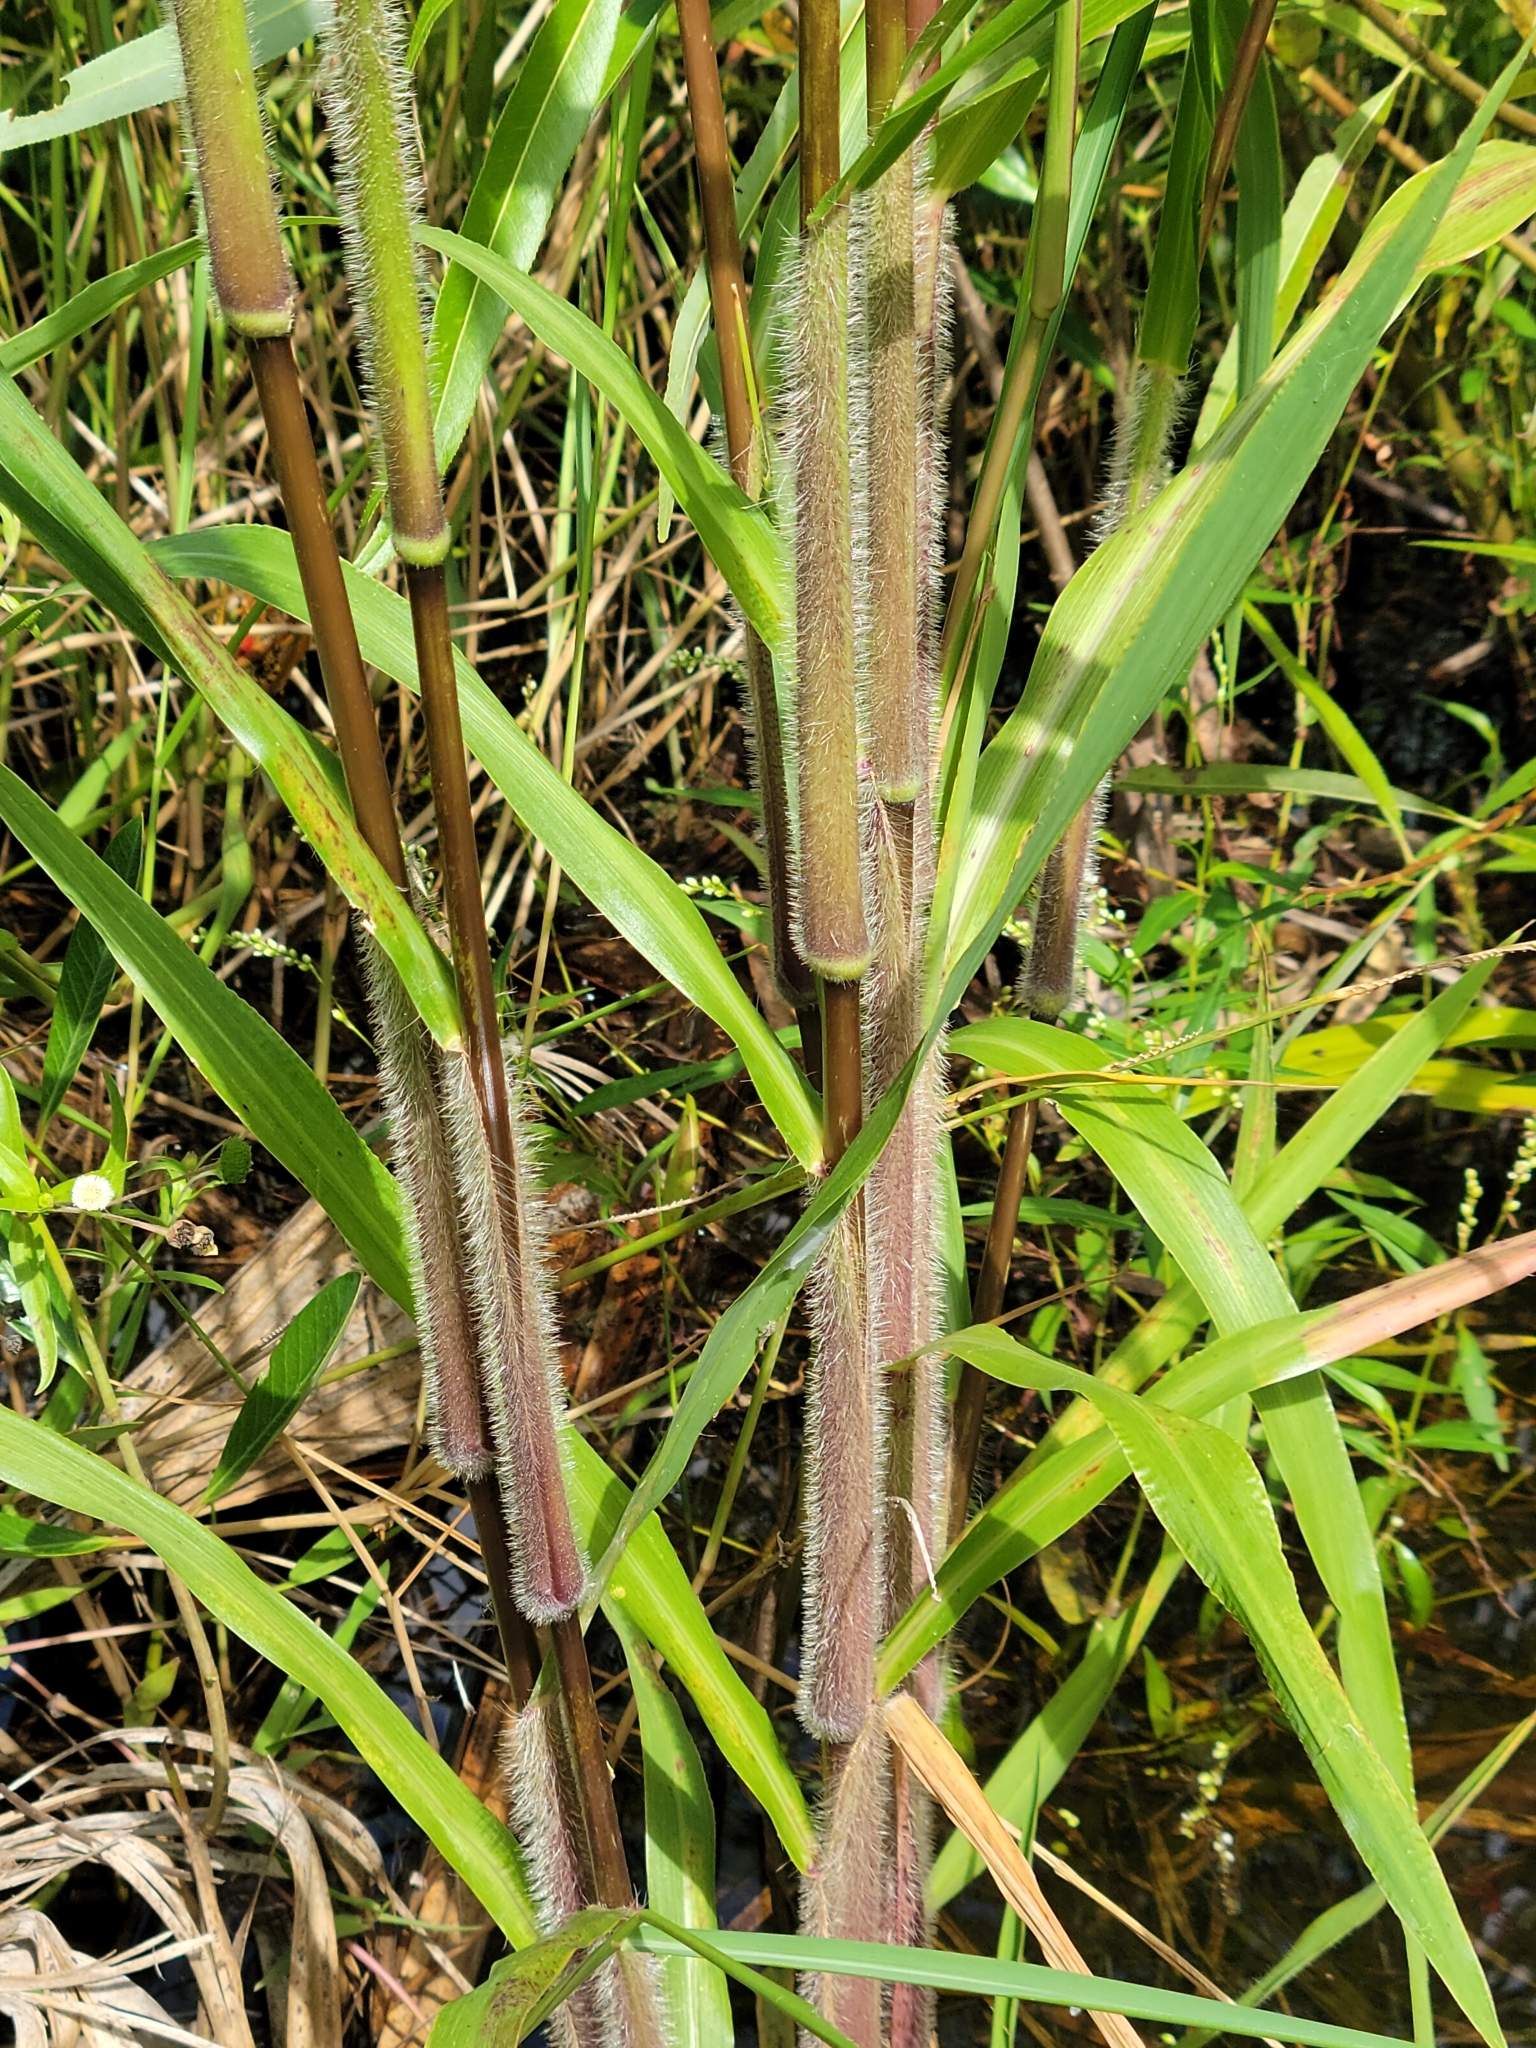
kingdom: Plantae
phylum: Tracheophyta
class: Liliopsida
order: Poales
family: Poaceae
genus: Echinochloa
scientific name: Echinochloa walteri
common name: Coast barnyard grass
